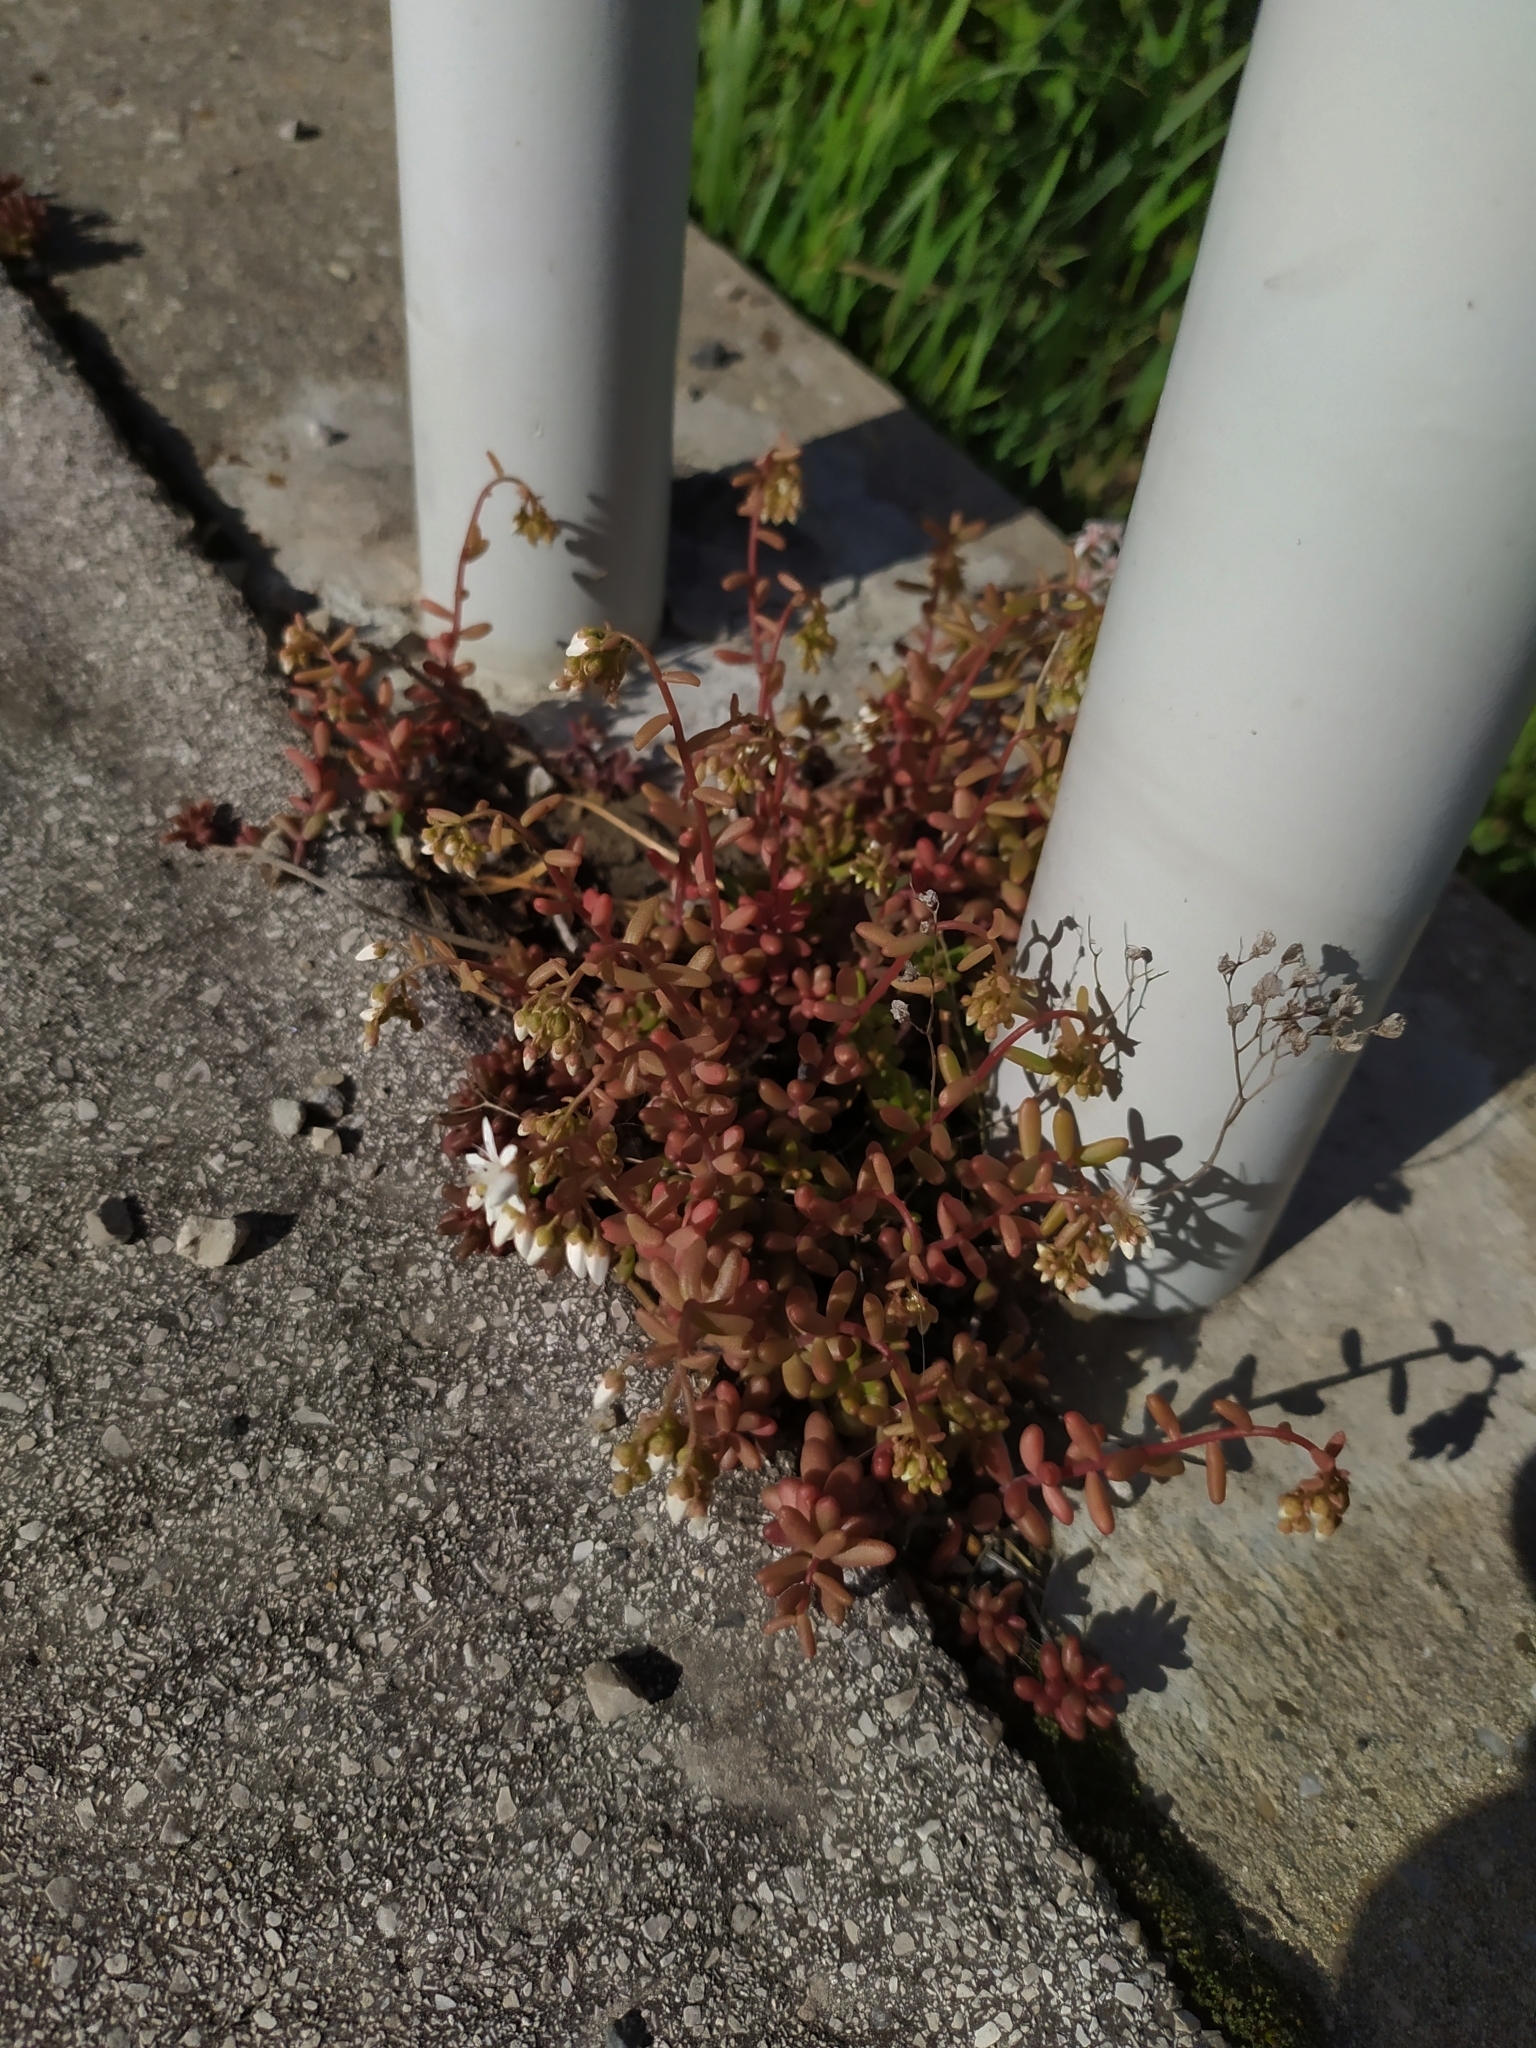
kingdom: Plantae
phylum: Tracheophyta
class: Magnoliopsida
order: Saxifragales
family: Crassulaceae
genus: Sedum
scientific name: Sedum album
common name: White stonecrop
